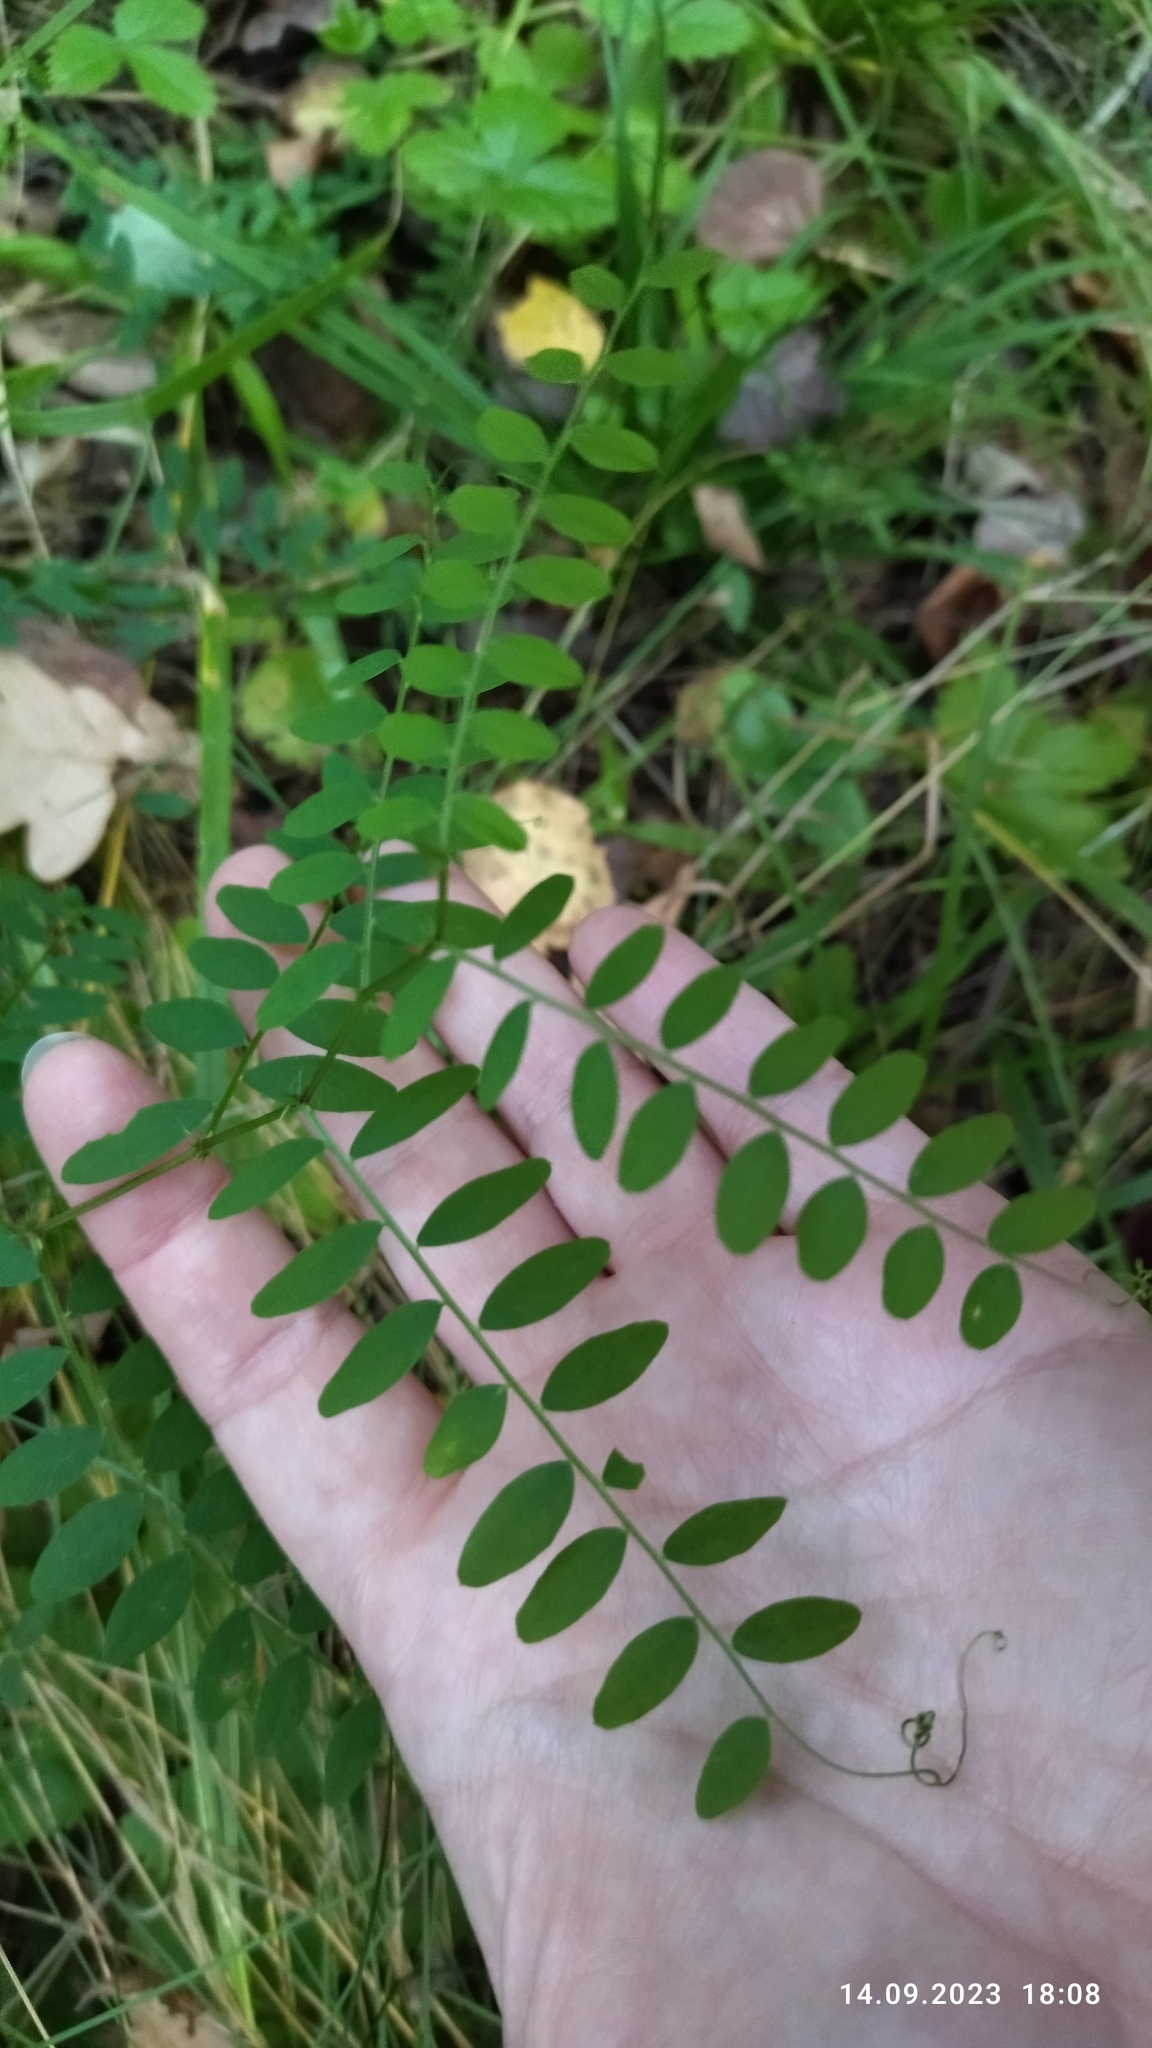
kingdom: Plantae
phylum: Tracheophyta
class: Magnoliopsida
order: Fabales
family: Fabaceae
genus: Vicia
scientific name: Vicia sylvatica
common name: Wood vetch
